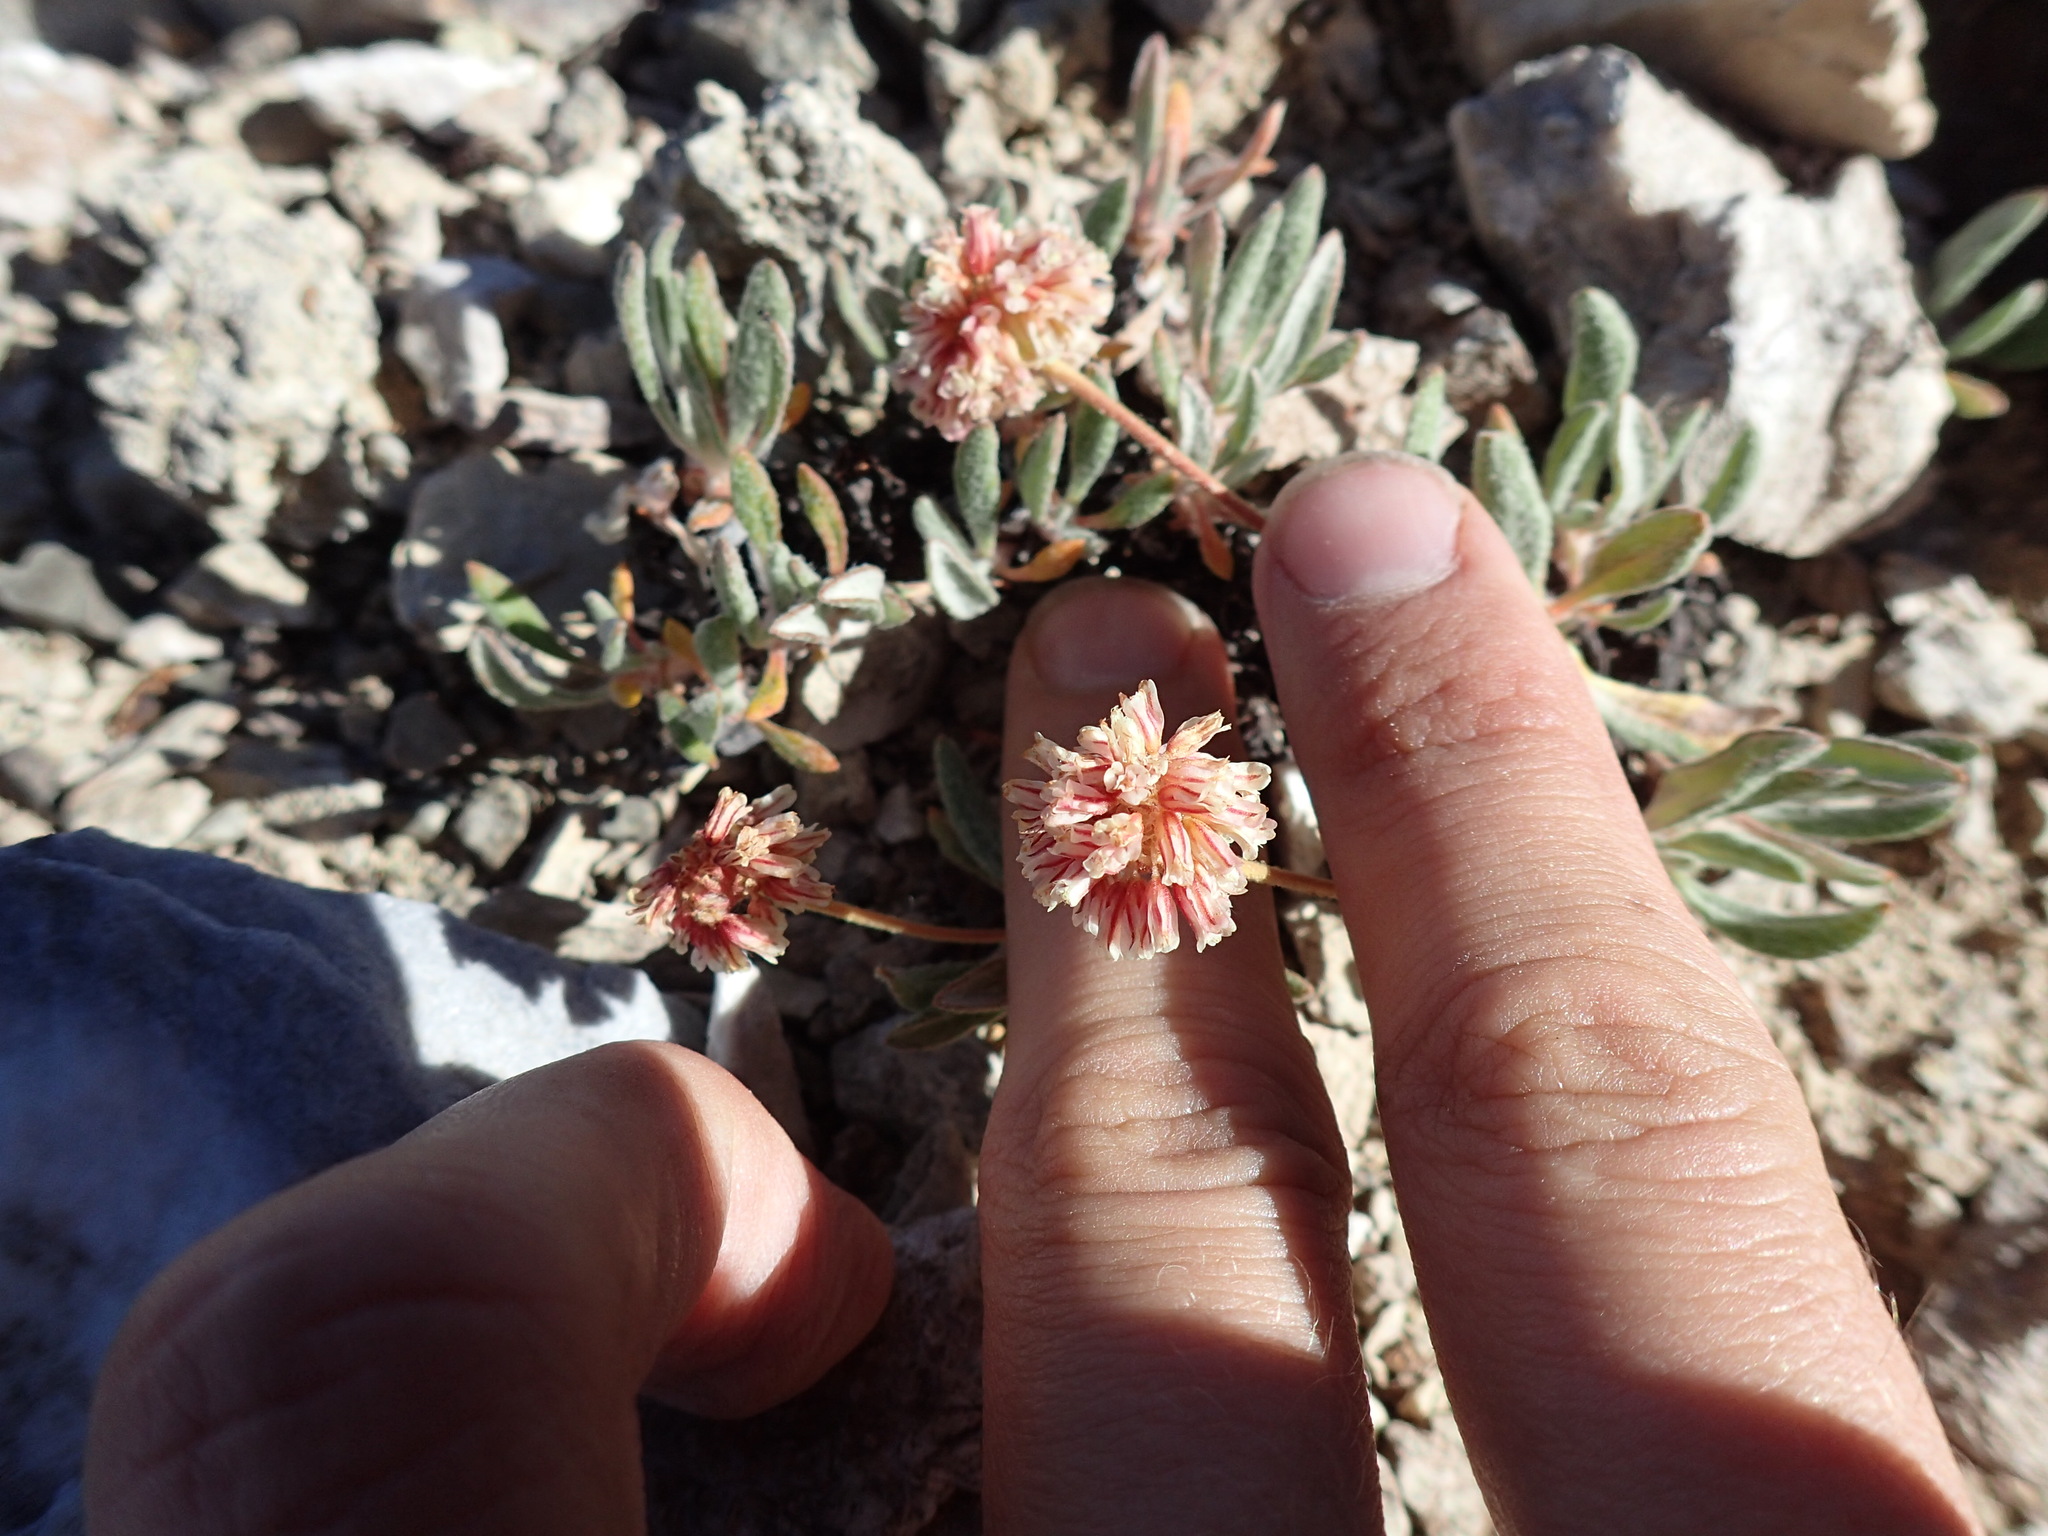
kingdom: Plantae
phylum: Tracheophyta
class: Magnoliopsida
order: Caryophyllales
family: Polygonaceae
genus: Eriogonum
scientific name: Eriogonum gracilipes
